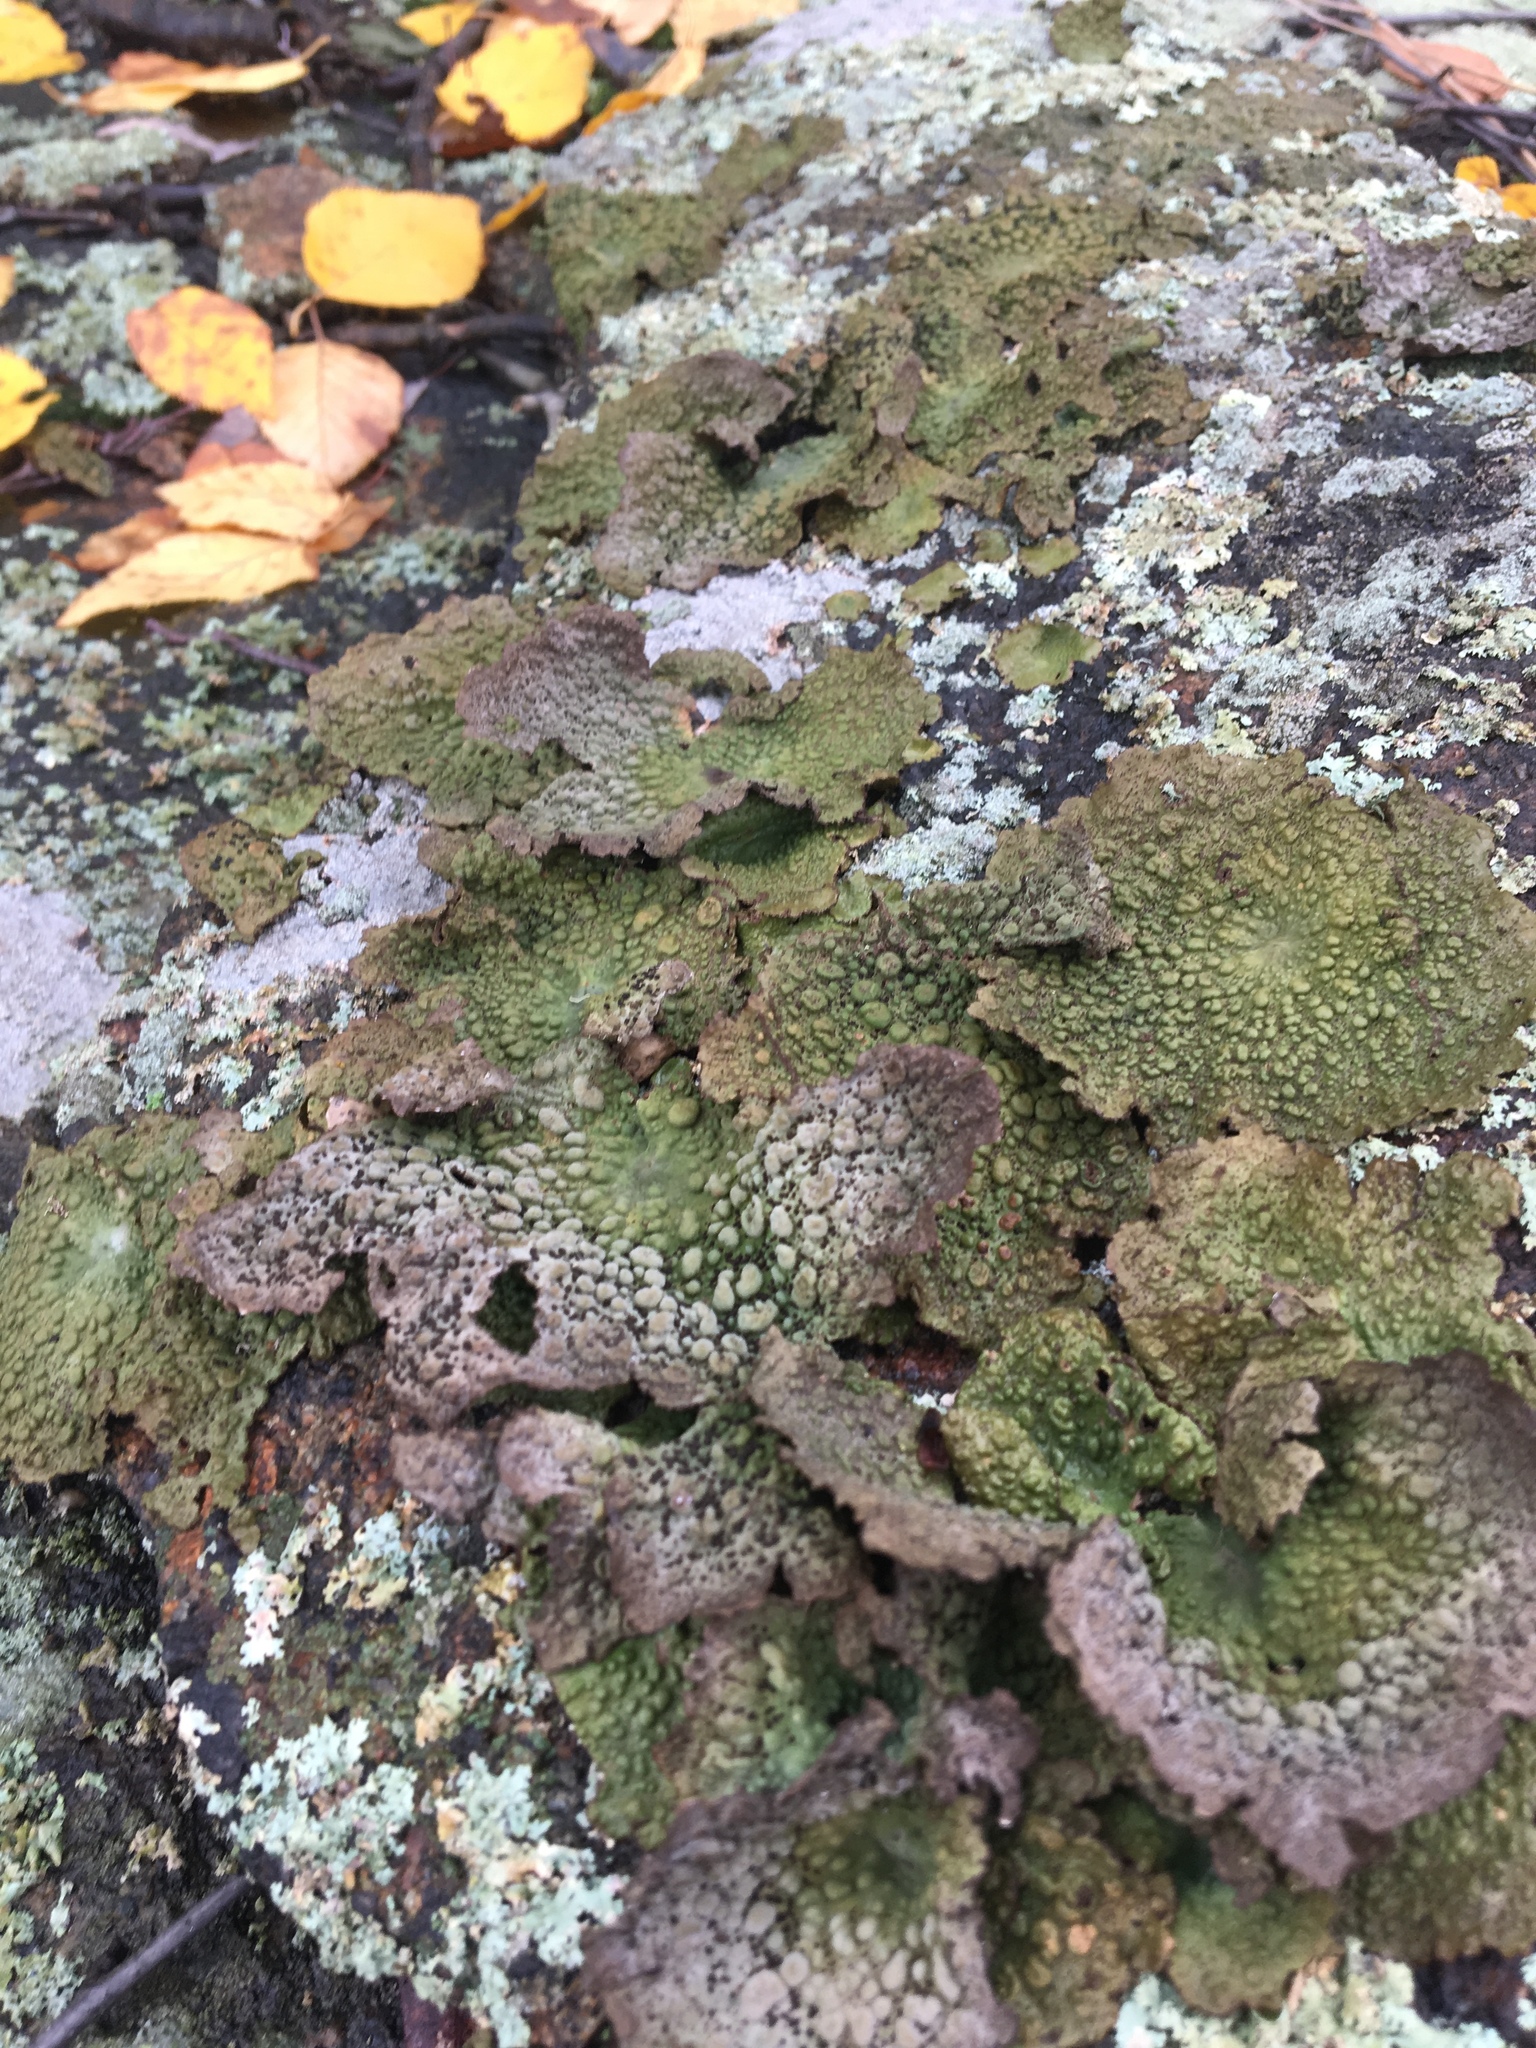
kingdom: Fungi
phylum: Ascomycota
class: Lecanoromycetes
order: Umbilicariales
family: Umbilicariaceae
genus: Lasallia
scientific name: Lasallia papulosa
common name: Common toadskin lichen
